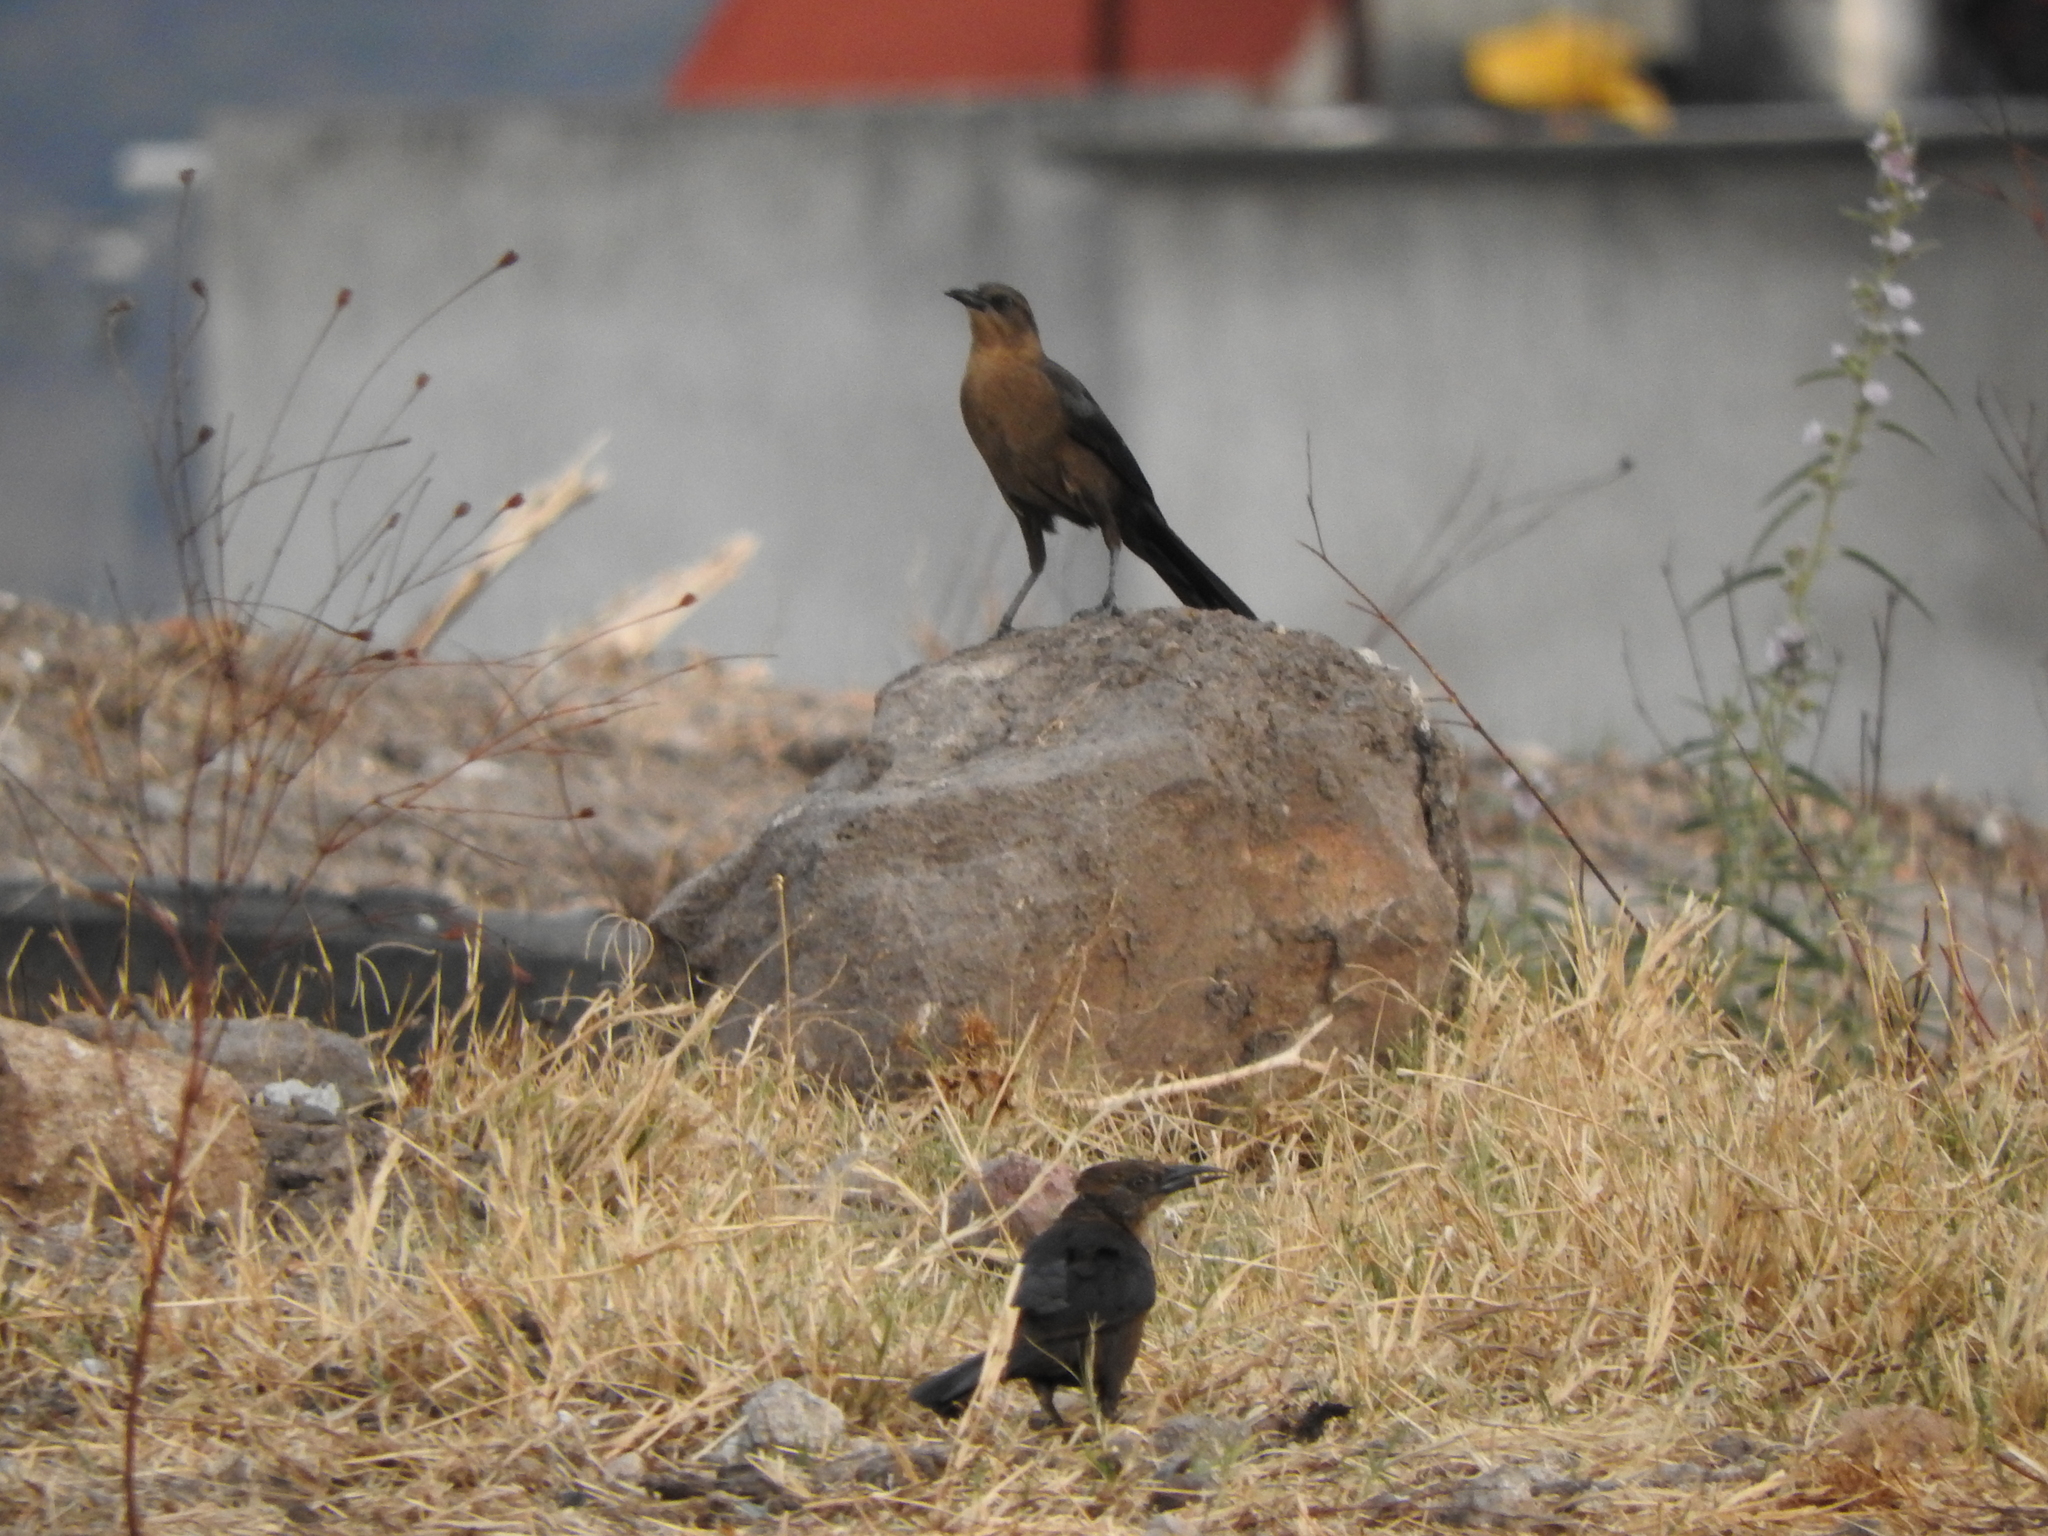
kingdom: Animalia
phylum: Chordata
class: Aves
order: Passeriformes
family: Icteridae
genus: Quiscalus
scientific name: Quiscalus mexicanus
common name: Great-tailed grackle
